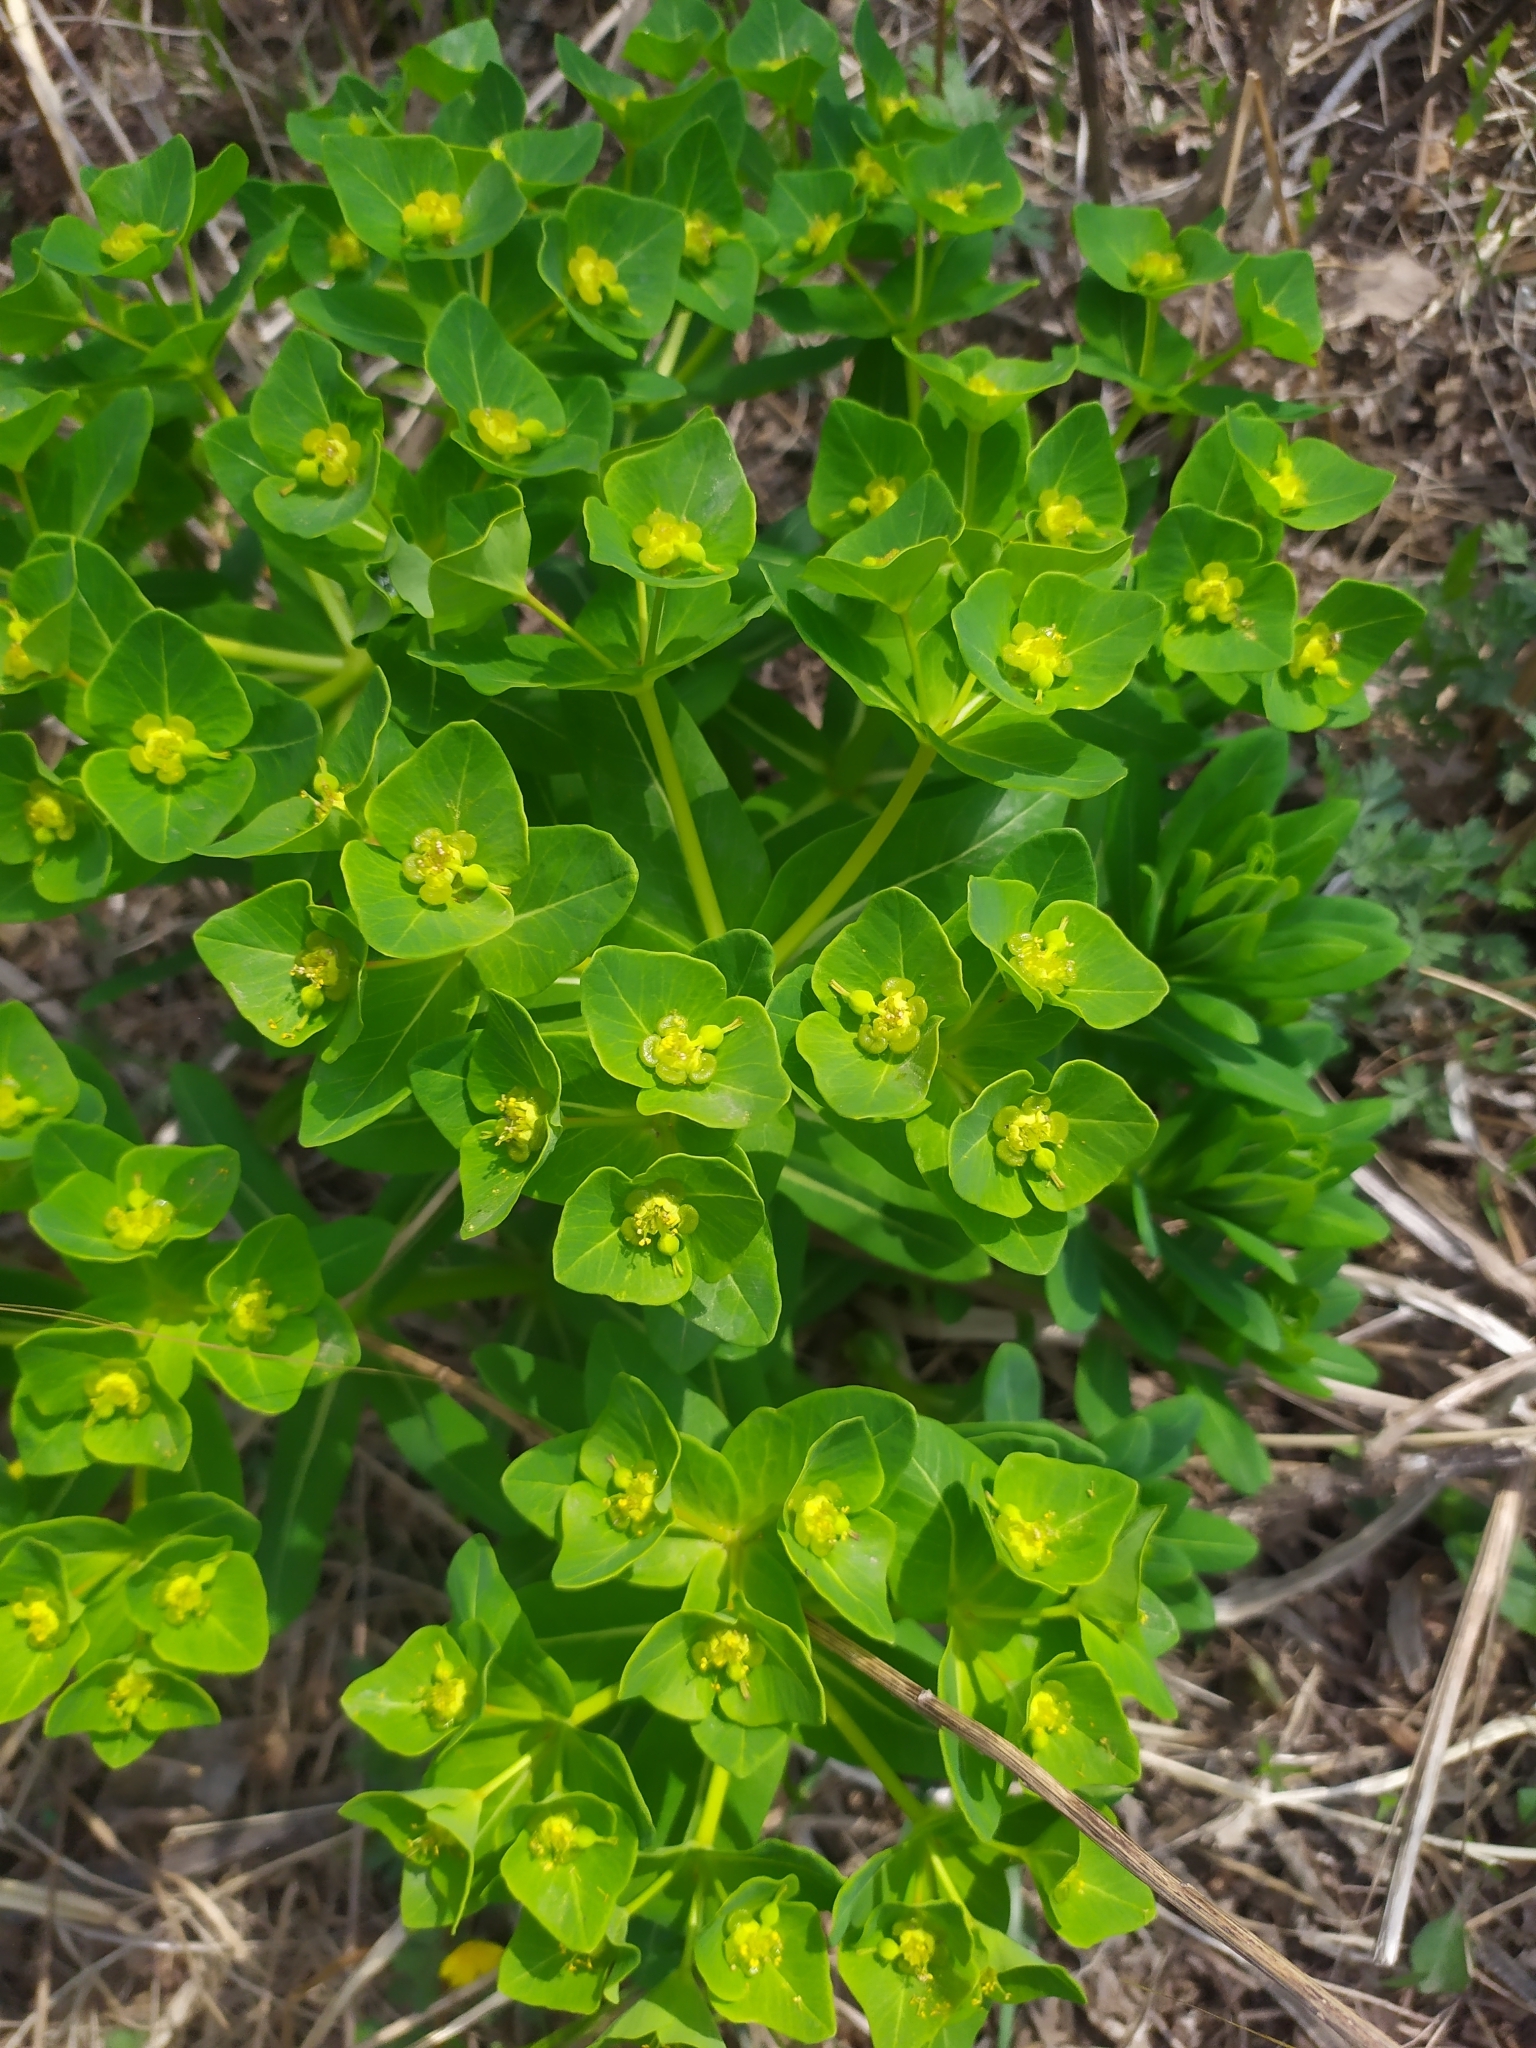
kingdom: Plantae
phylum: Tracheophyta
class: Magnoliopsida
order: Malpighiales
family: Euphorbiaceae
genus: Euphorbia
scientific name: Euphorbia hylonoma
